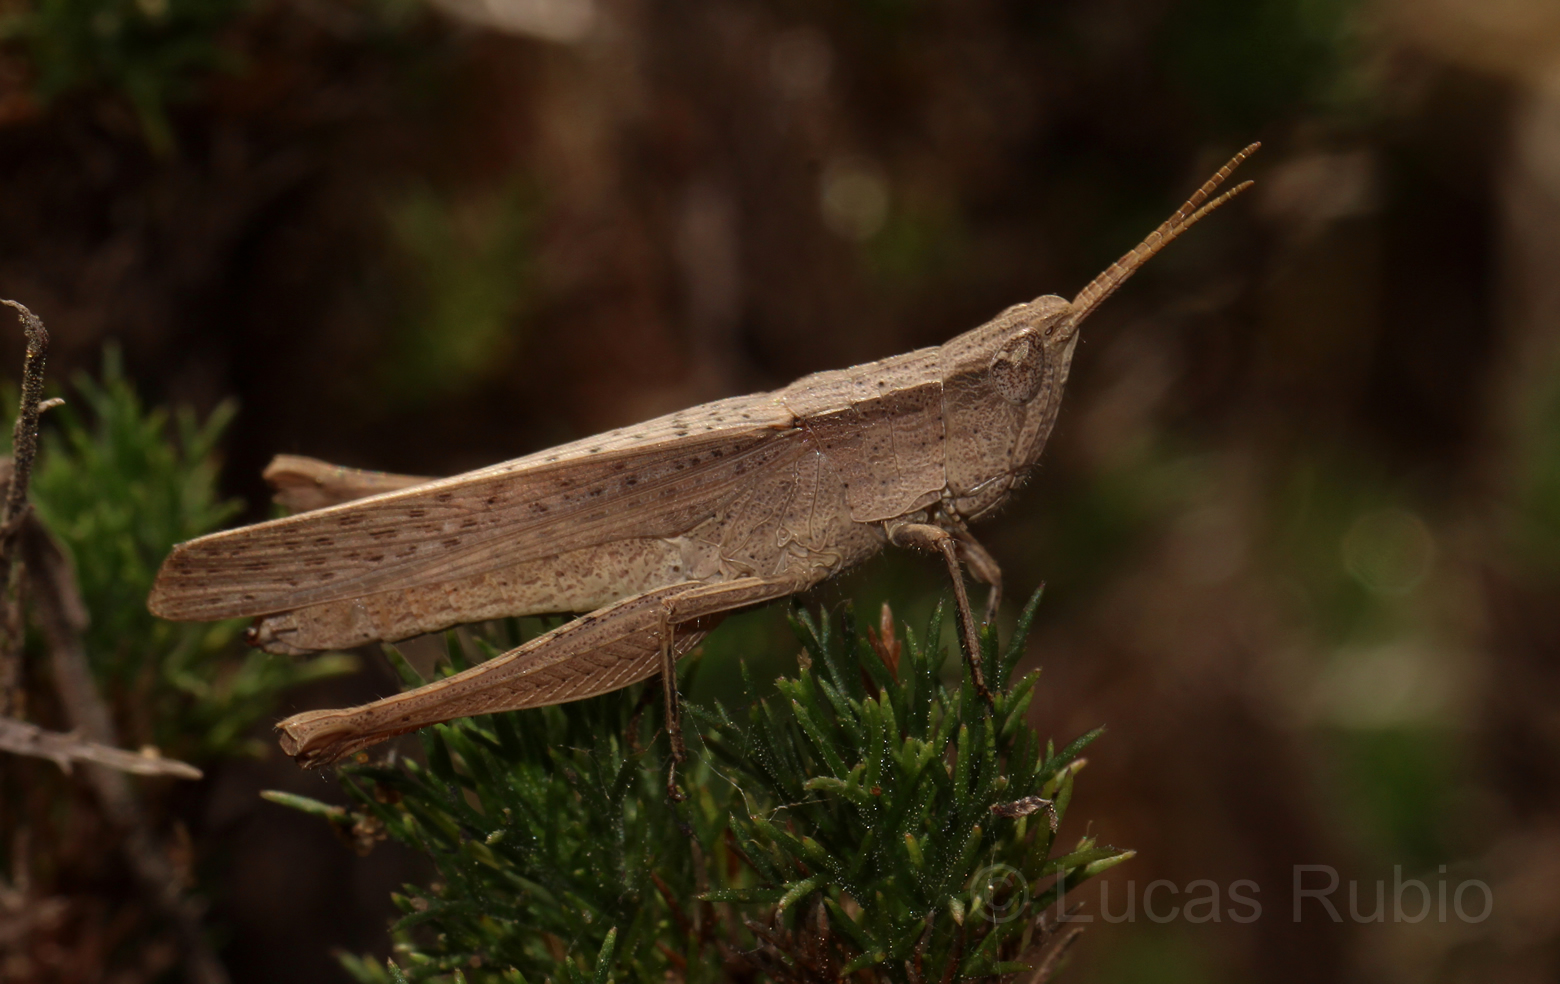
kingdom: Animalia
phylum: Arthropoda
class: Insecta
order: Orthoptera
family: Acrididae
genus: Eutryxalis
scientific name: Eutryxalis filata
